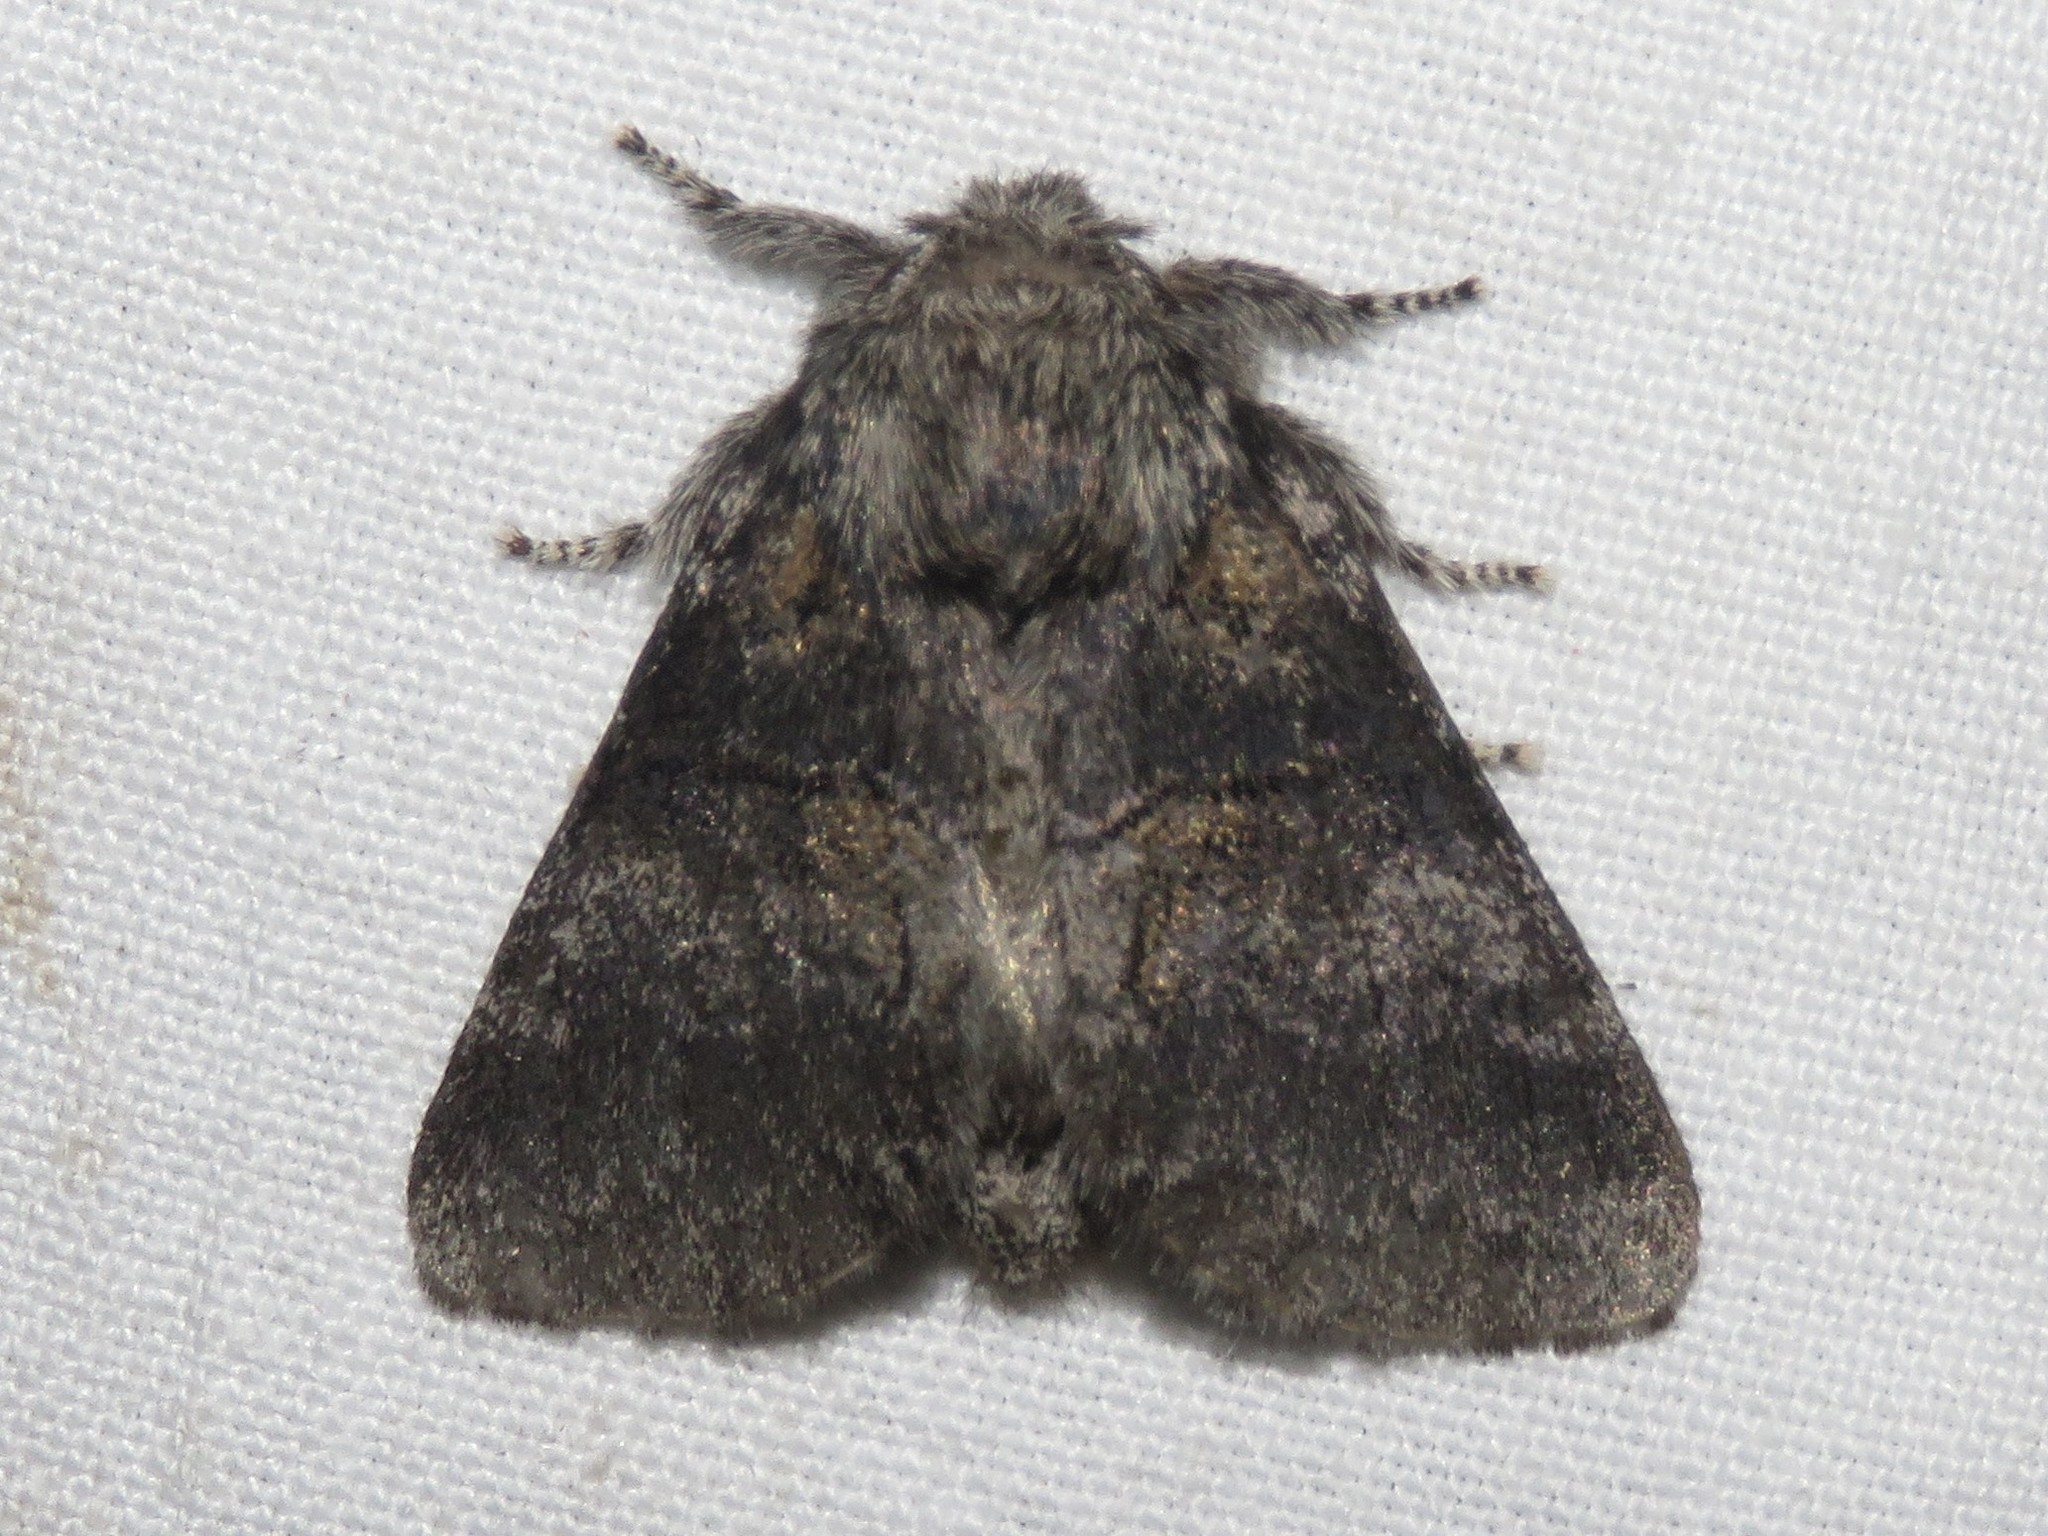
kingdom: Animalia
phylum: Arthropoda
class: Insecta
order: Lepidoptera
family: Notodontidae
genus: Gluphisia
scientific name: Gluphisia septentrionis
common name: Common gluphisia
